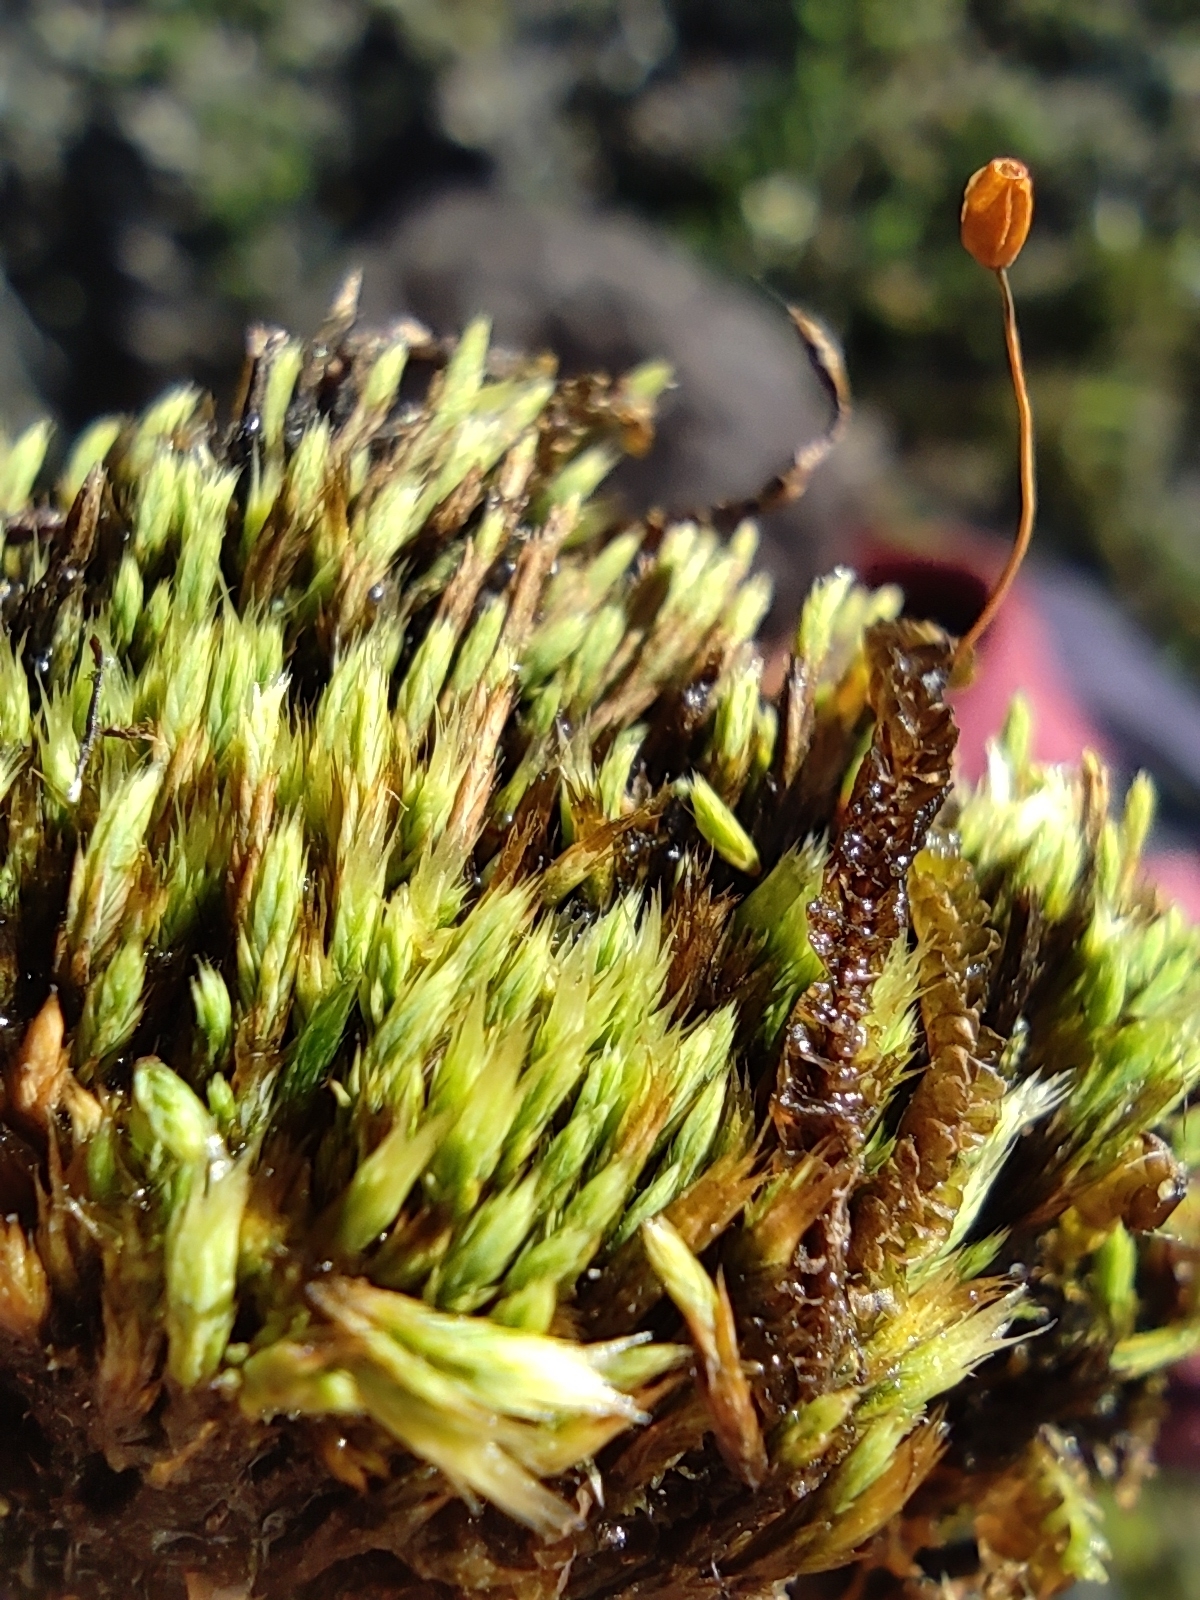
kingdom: Plantae
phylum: Bryophyta
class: Bryopsida
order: Bartramiales
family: Bartramiaceae
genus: Conostomum
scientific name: Conostomum tetragonum
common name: Helmet moss
